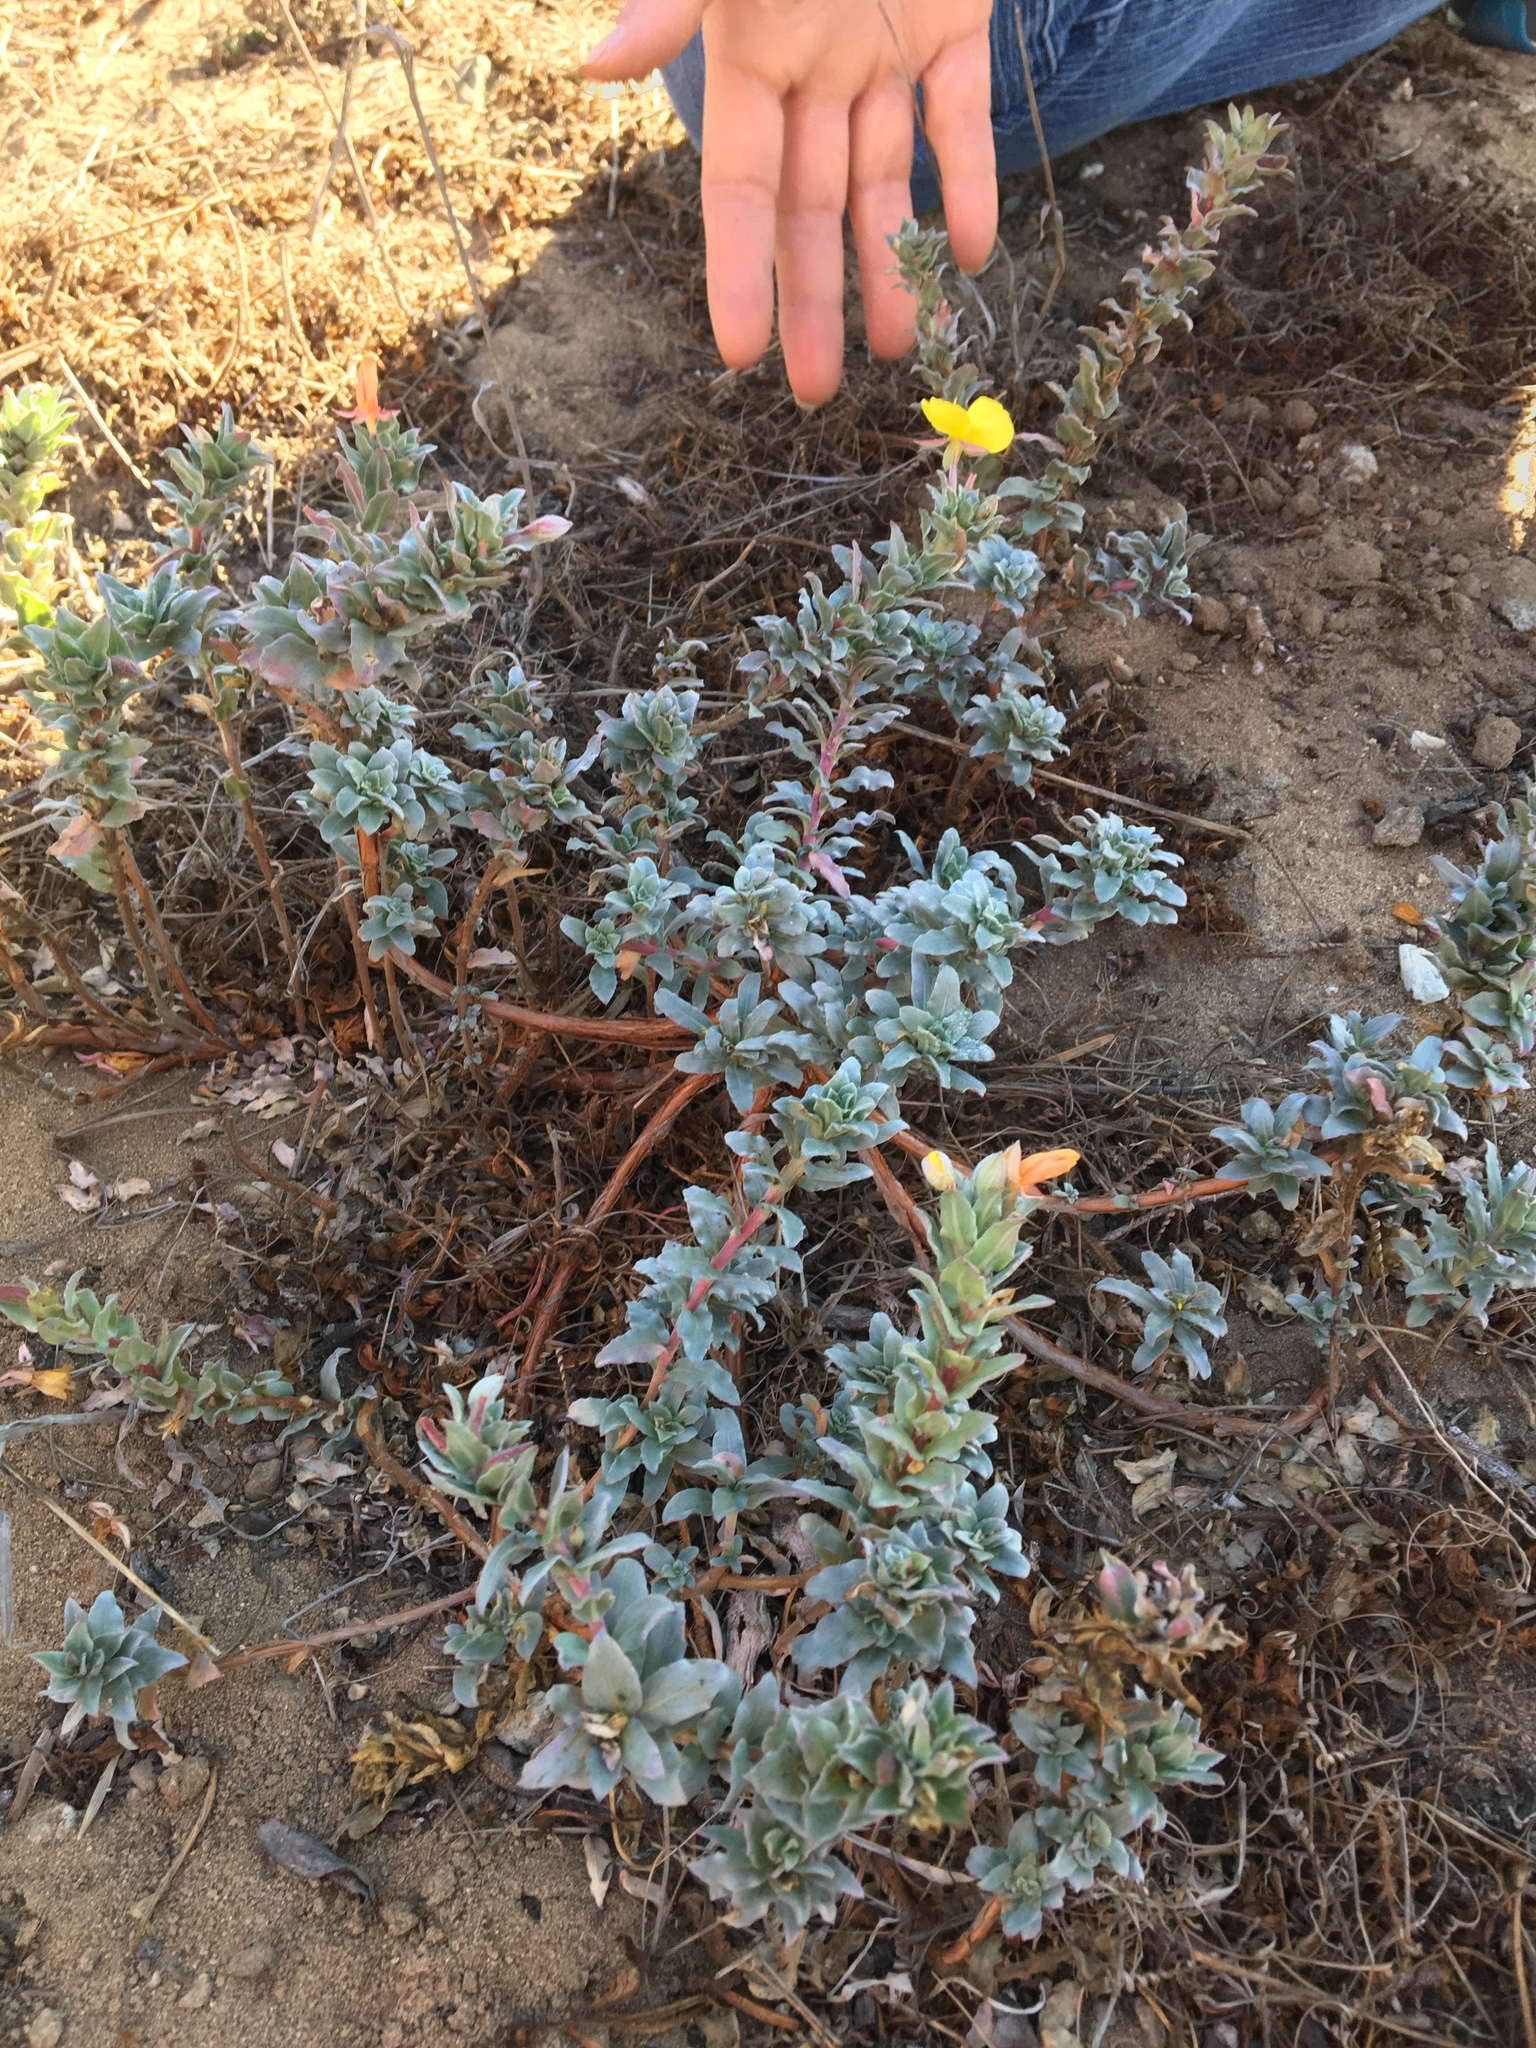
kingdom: Plantae
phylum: Tracheophyta
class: Magnoliopsida
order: Myrtales
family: Onagraceae
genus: Camissoniopsis
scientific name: Camissoniopsis cheiranthifolia
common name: Beach suncup
